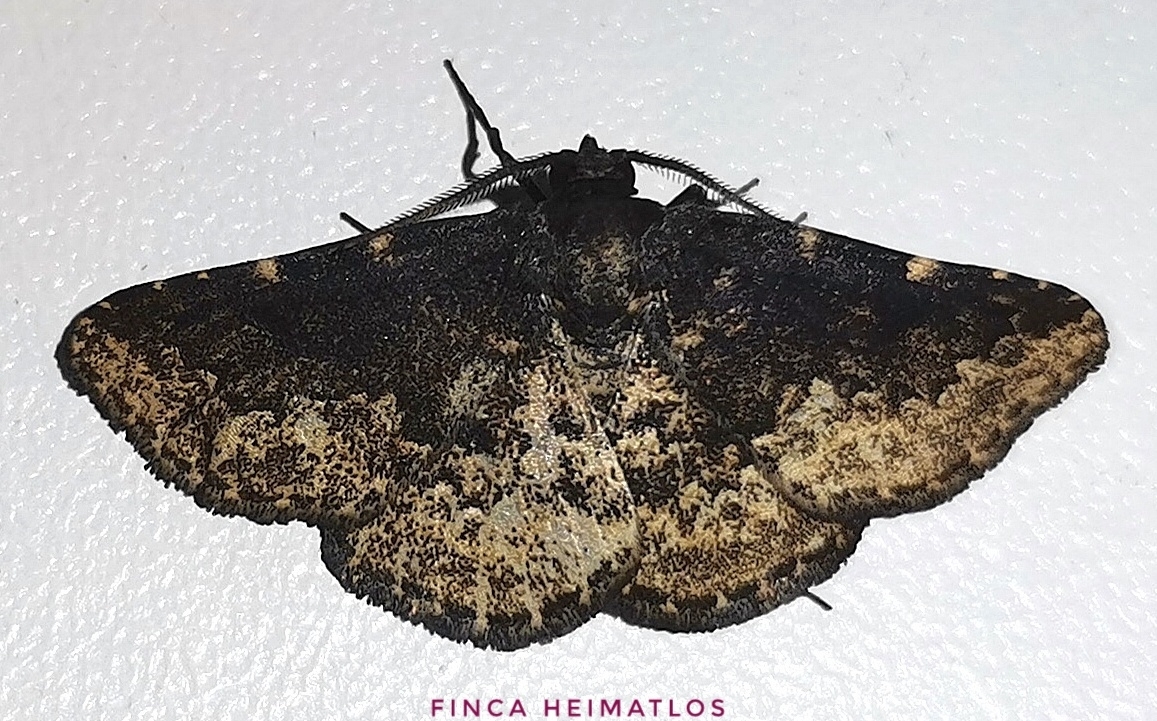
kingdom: Animalia
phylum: Arthropoda
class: Insecta
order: Lepidoptera
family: Erebidae
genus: Prosoparia
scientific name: Prosoparia marginata
